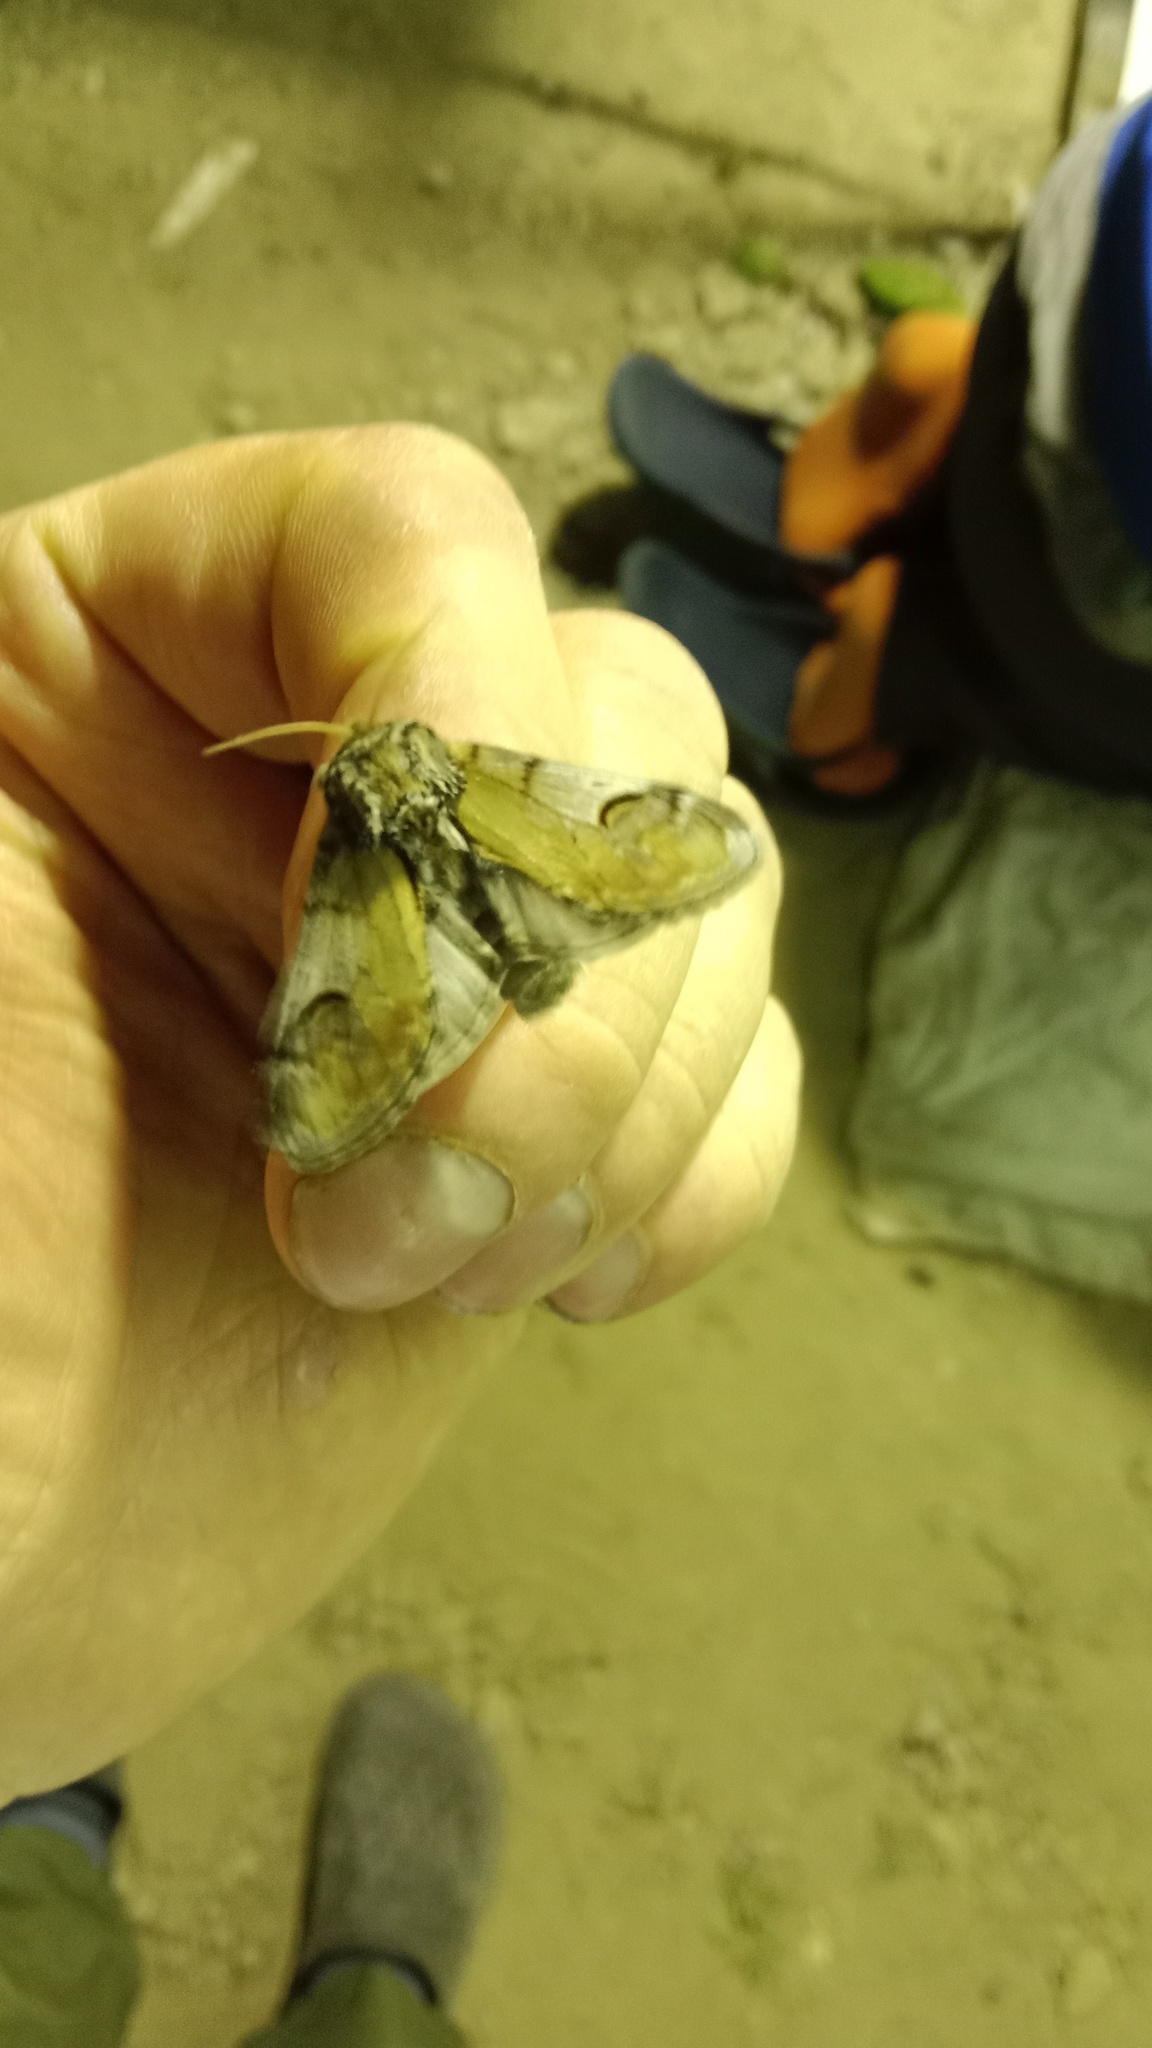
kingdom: Animalia
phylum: Arthropoda
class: Insecta
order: Lepidoptera
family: Notodontidae
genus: Notodonta
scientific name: Notodonta ziczac
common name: Pebble prominent
